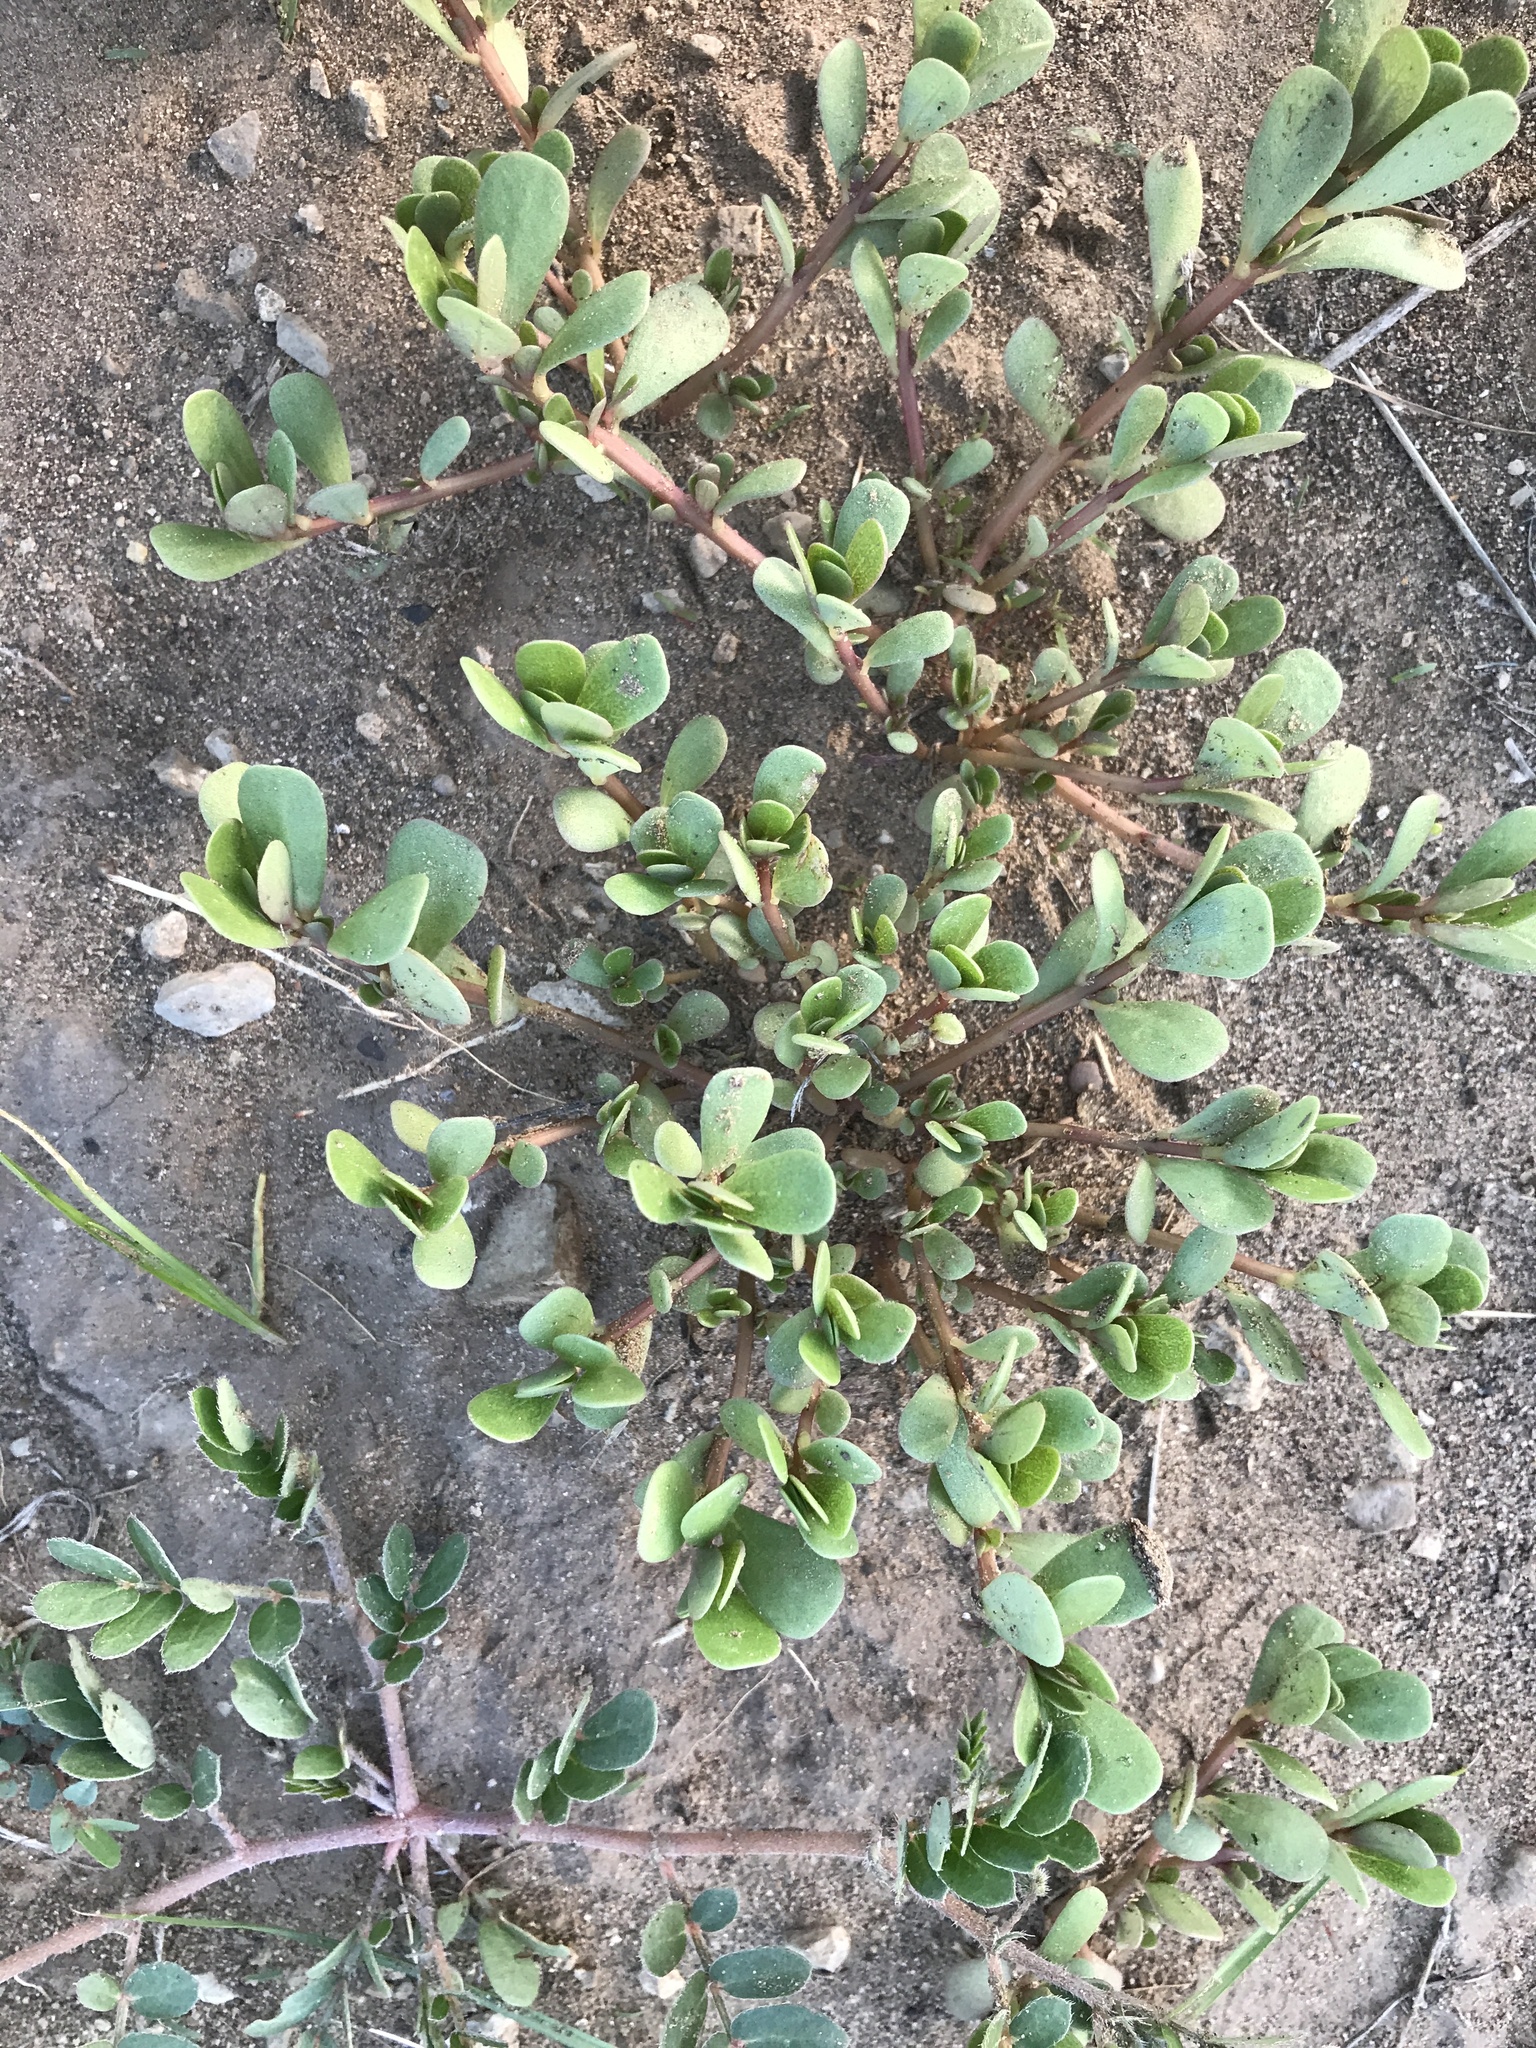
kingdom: Plantae
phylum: Tracheophyta
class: Magnoliopsida
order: Caryophyllales
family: Portulacaceae
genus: Portulaca
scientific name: Portulaca oleracea
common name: Common purslane
